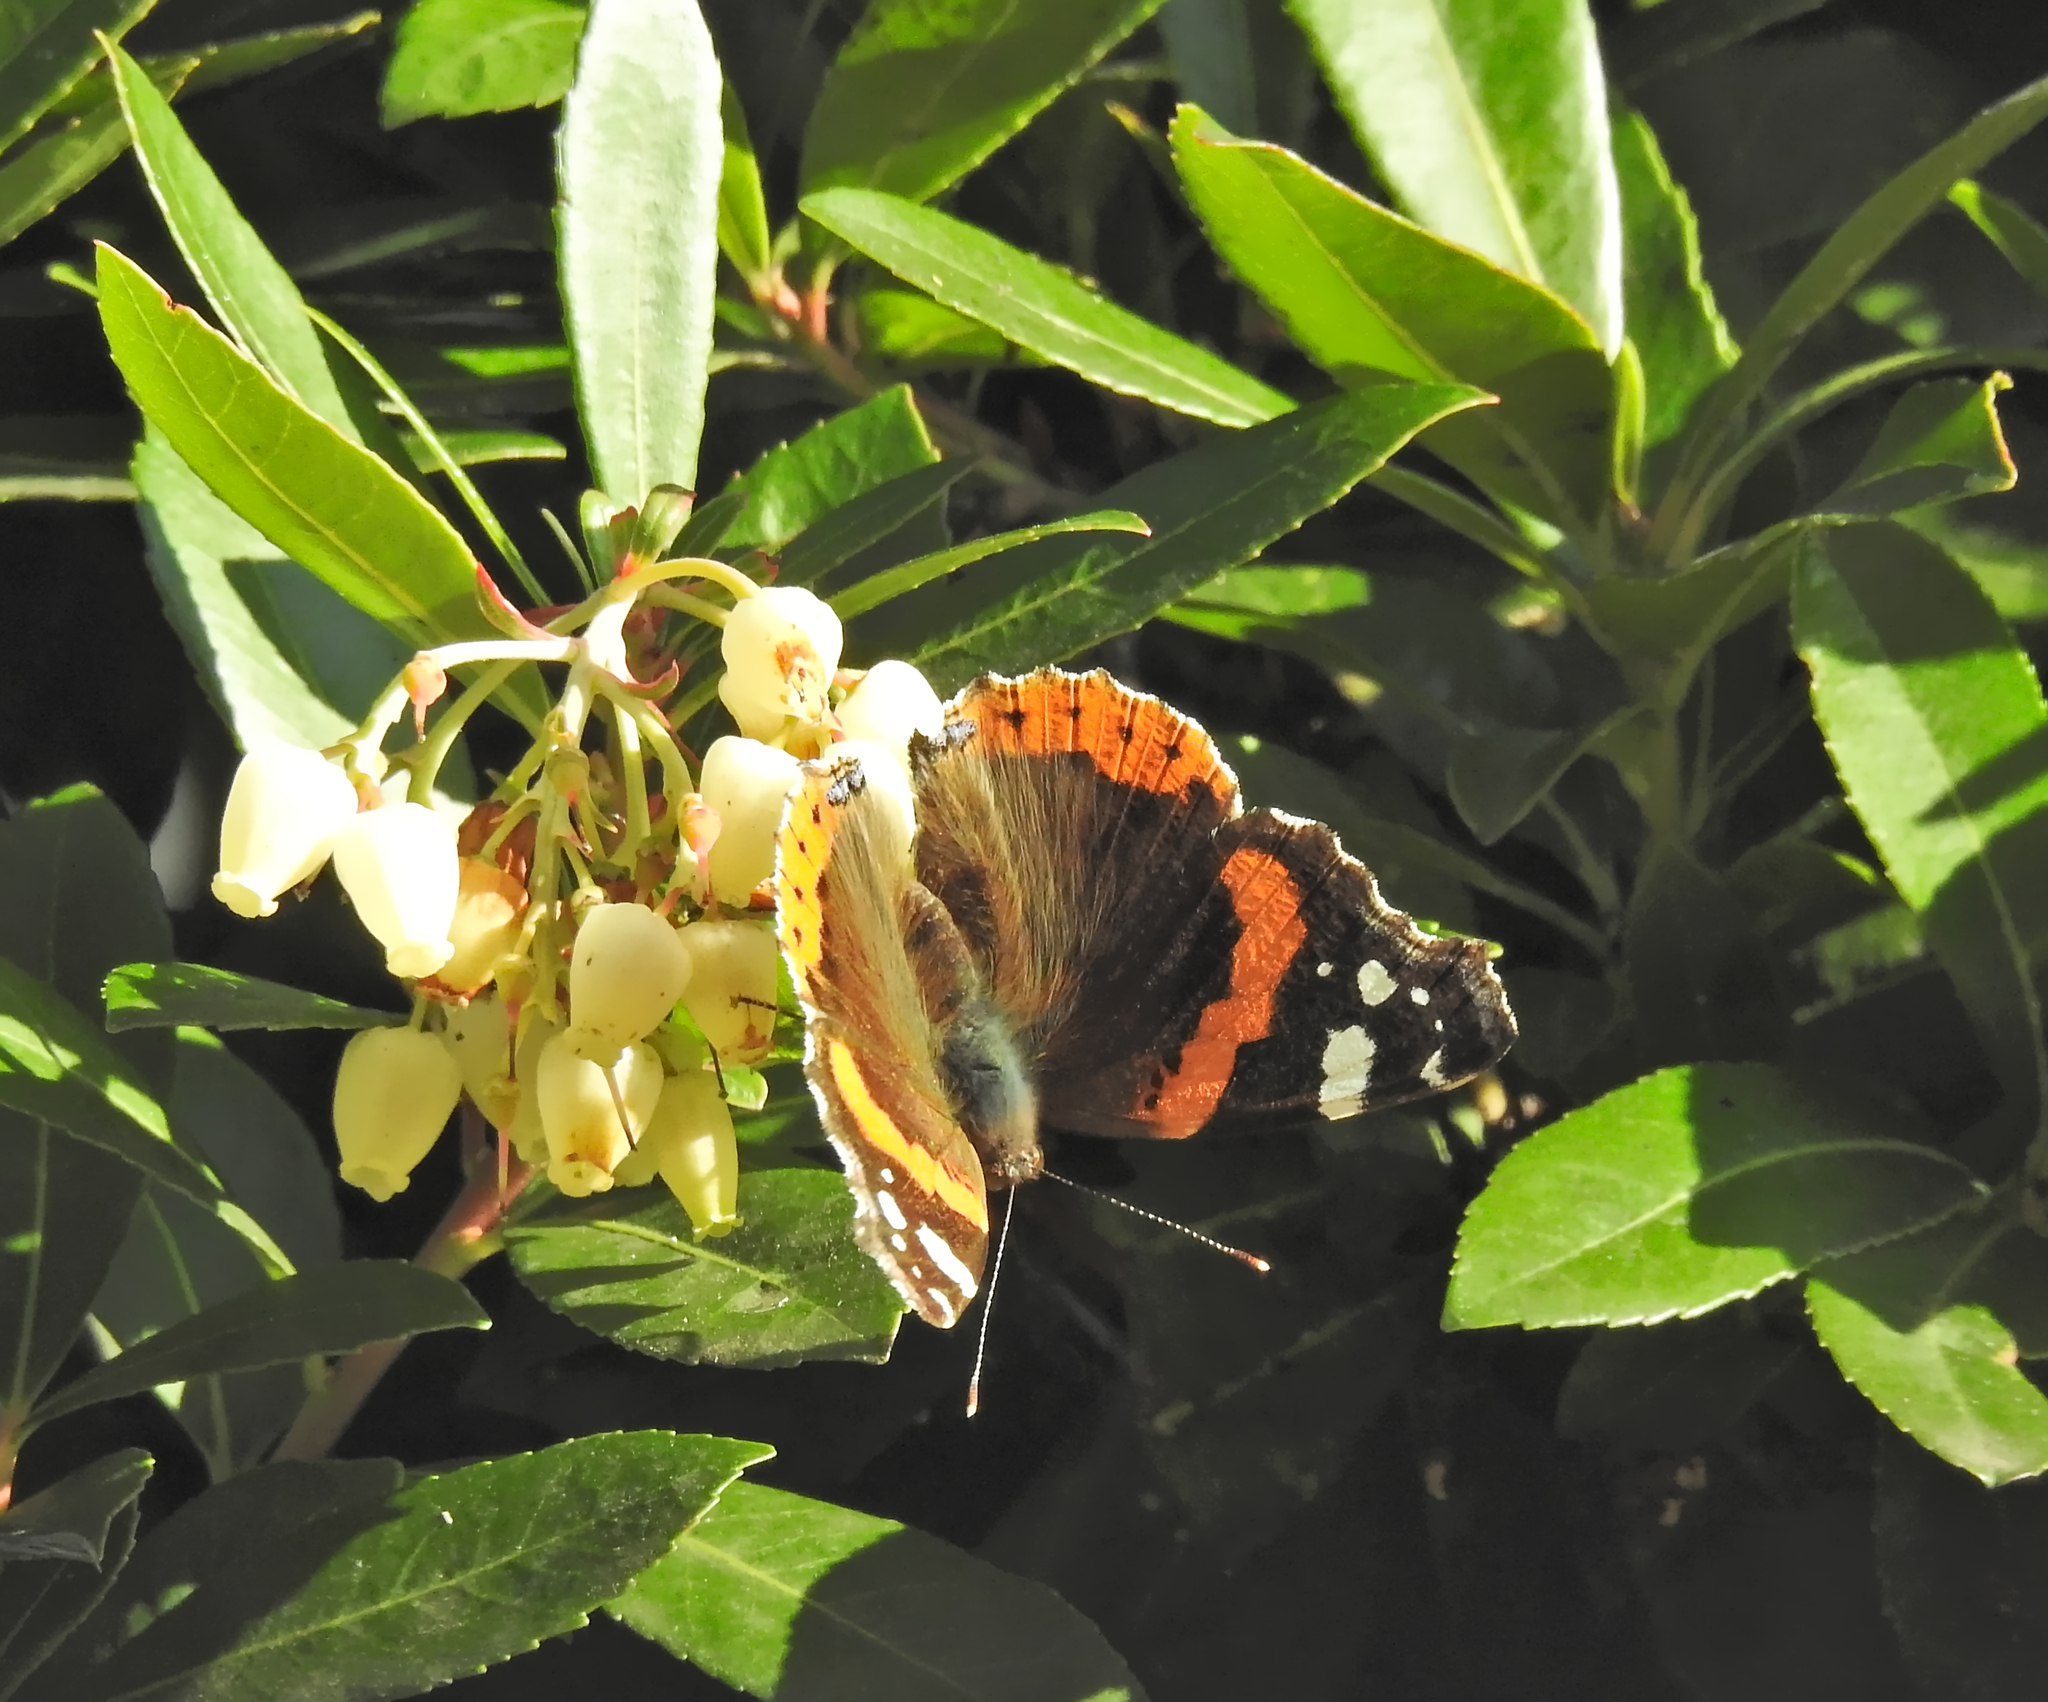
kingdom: Animalia
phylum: Arthropoda
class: Insecta
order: Lepidoptera
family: Nymphalidae
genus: Vanessa
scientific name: Vanessa atalanta
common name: Red admiral
